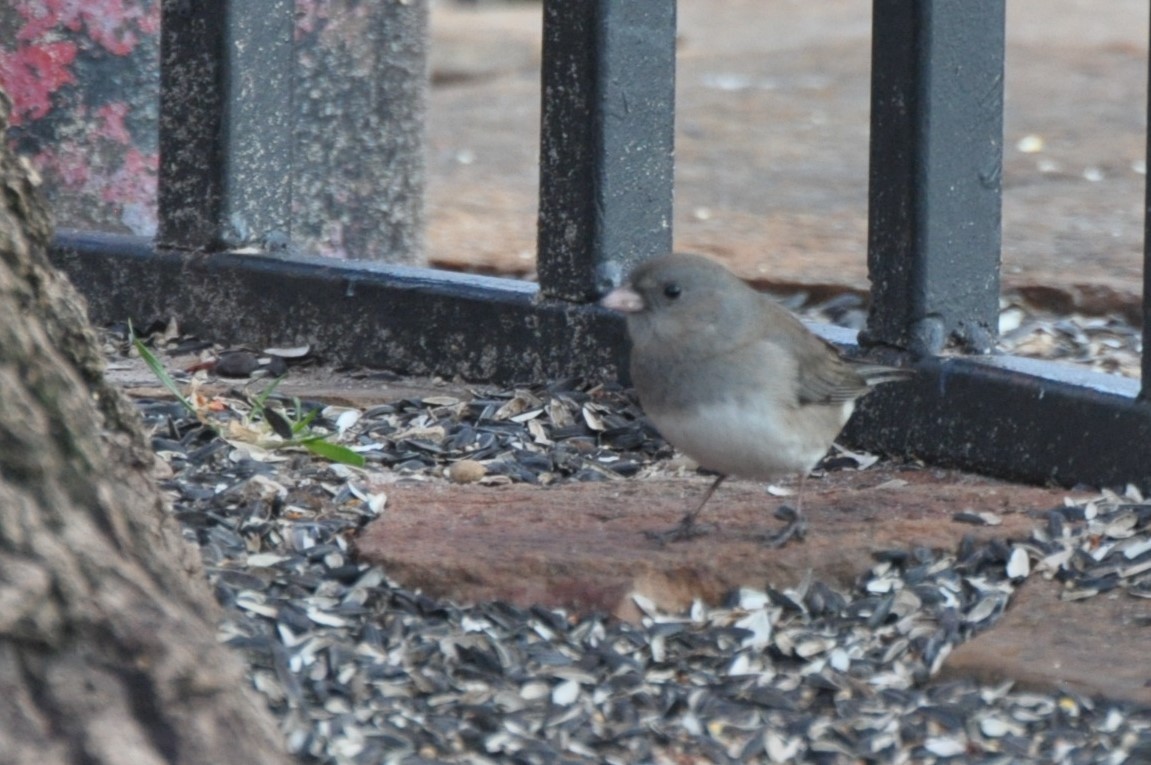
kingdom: Animalia
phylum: Chordata
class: Aves
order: Passeriformes
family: Passerellidae
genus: Junco
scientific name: Junco hyemalis
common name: Dark-eyed junco
